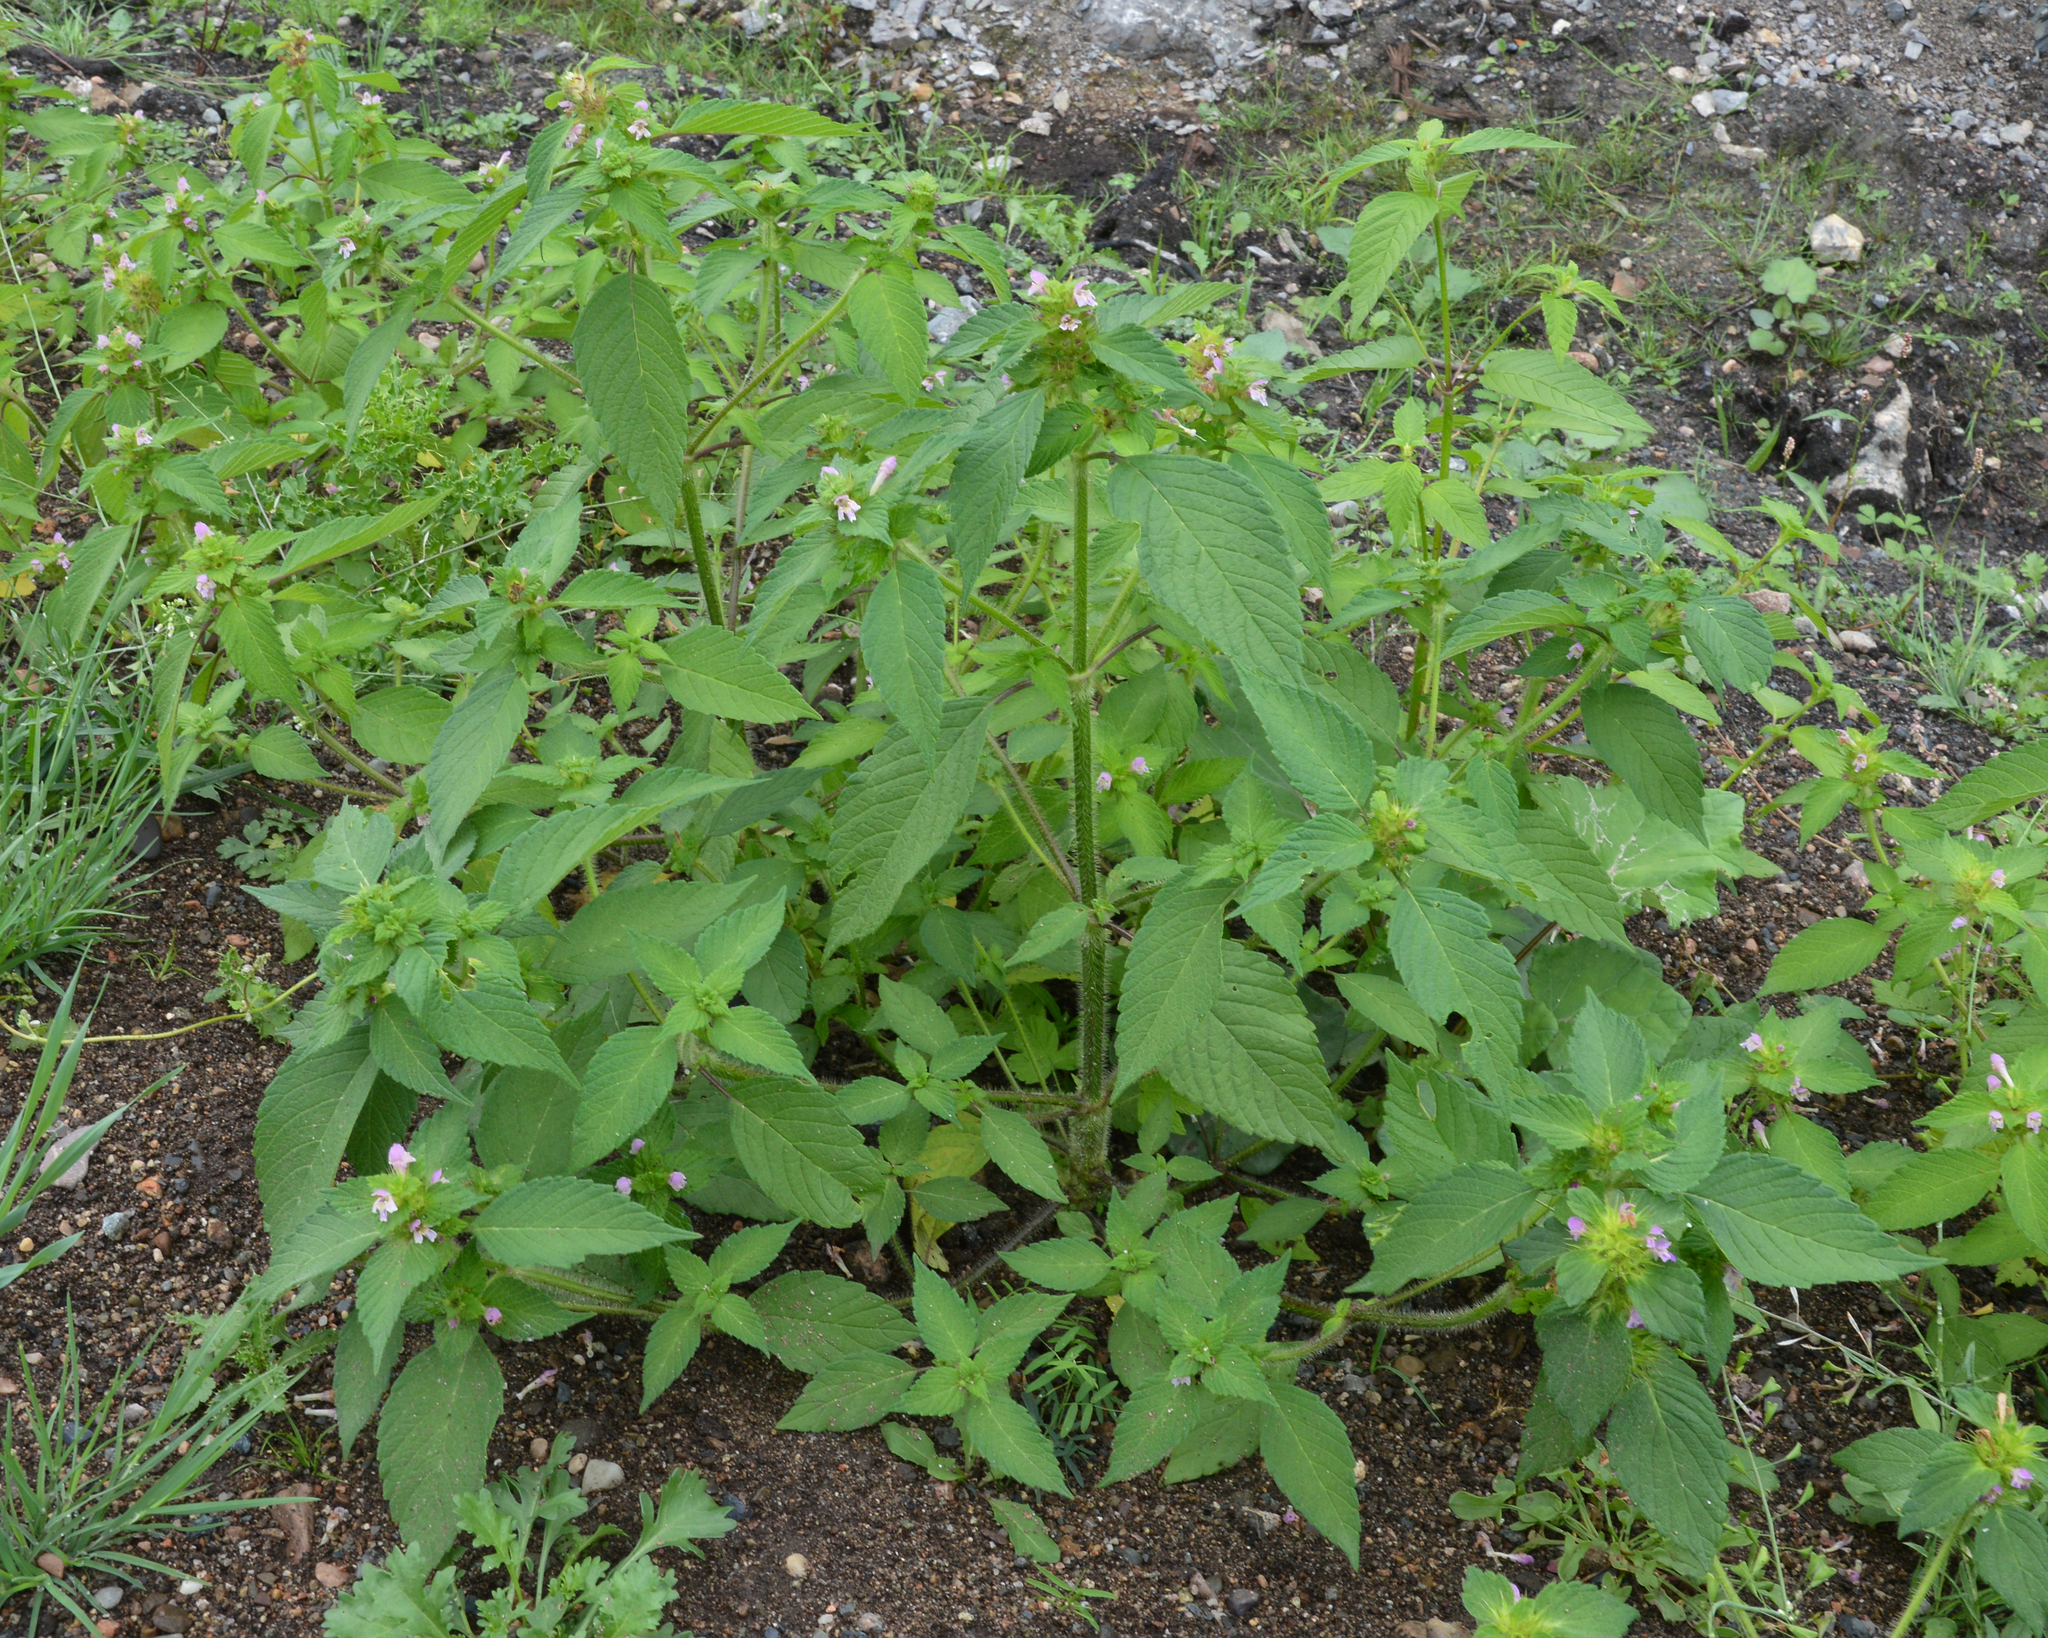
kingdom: Plantae
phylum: Tracheophyta
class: Magnoliopsida
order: Lamiales
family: Lamiaceae
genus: Galeopsis
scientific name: Galeopsis bifida
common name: Bifid hemp-nettle
